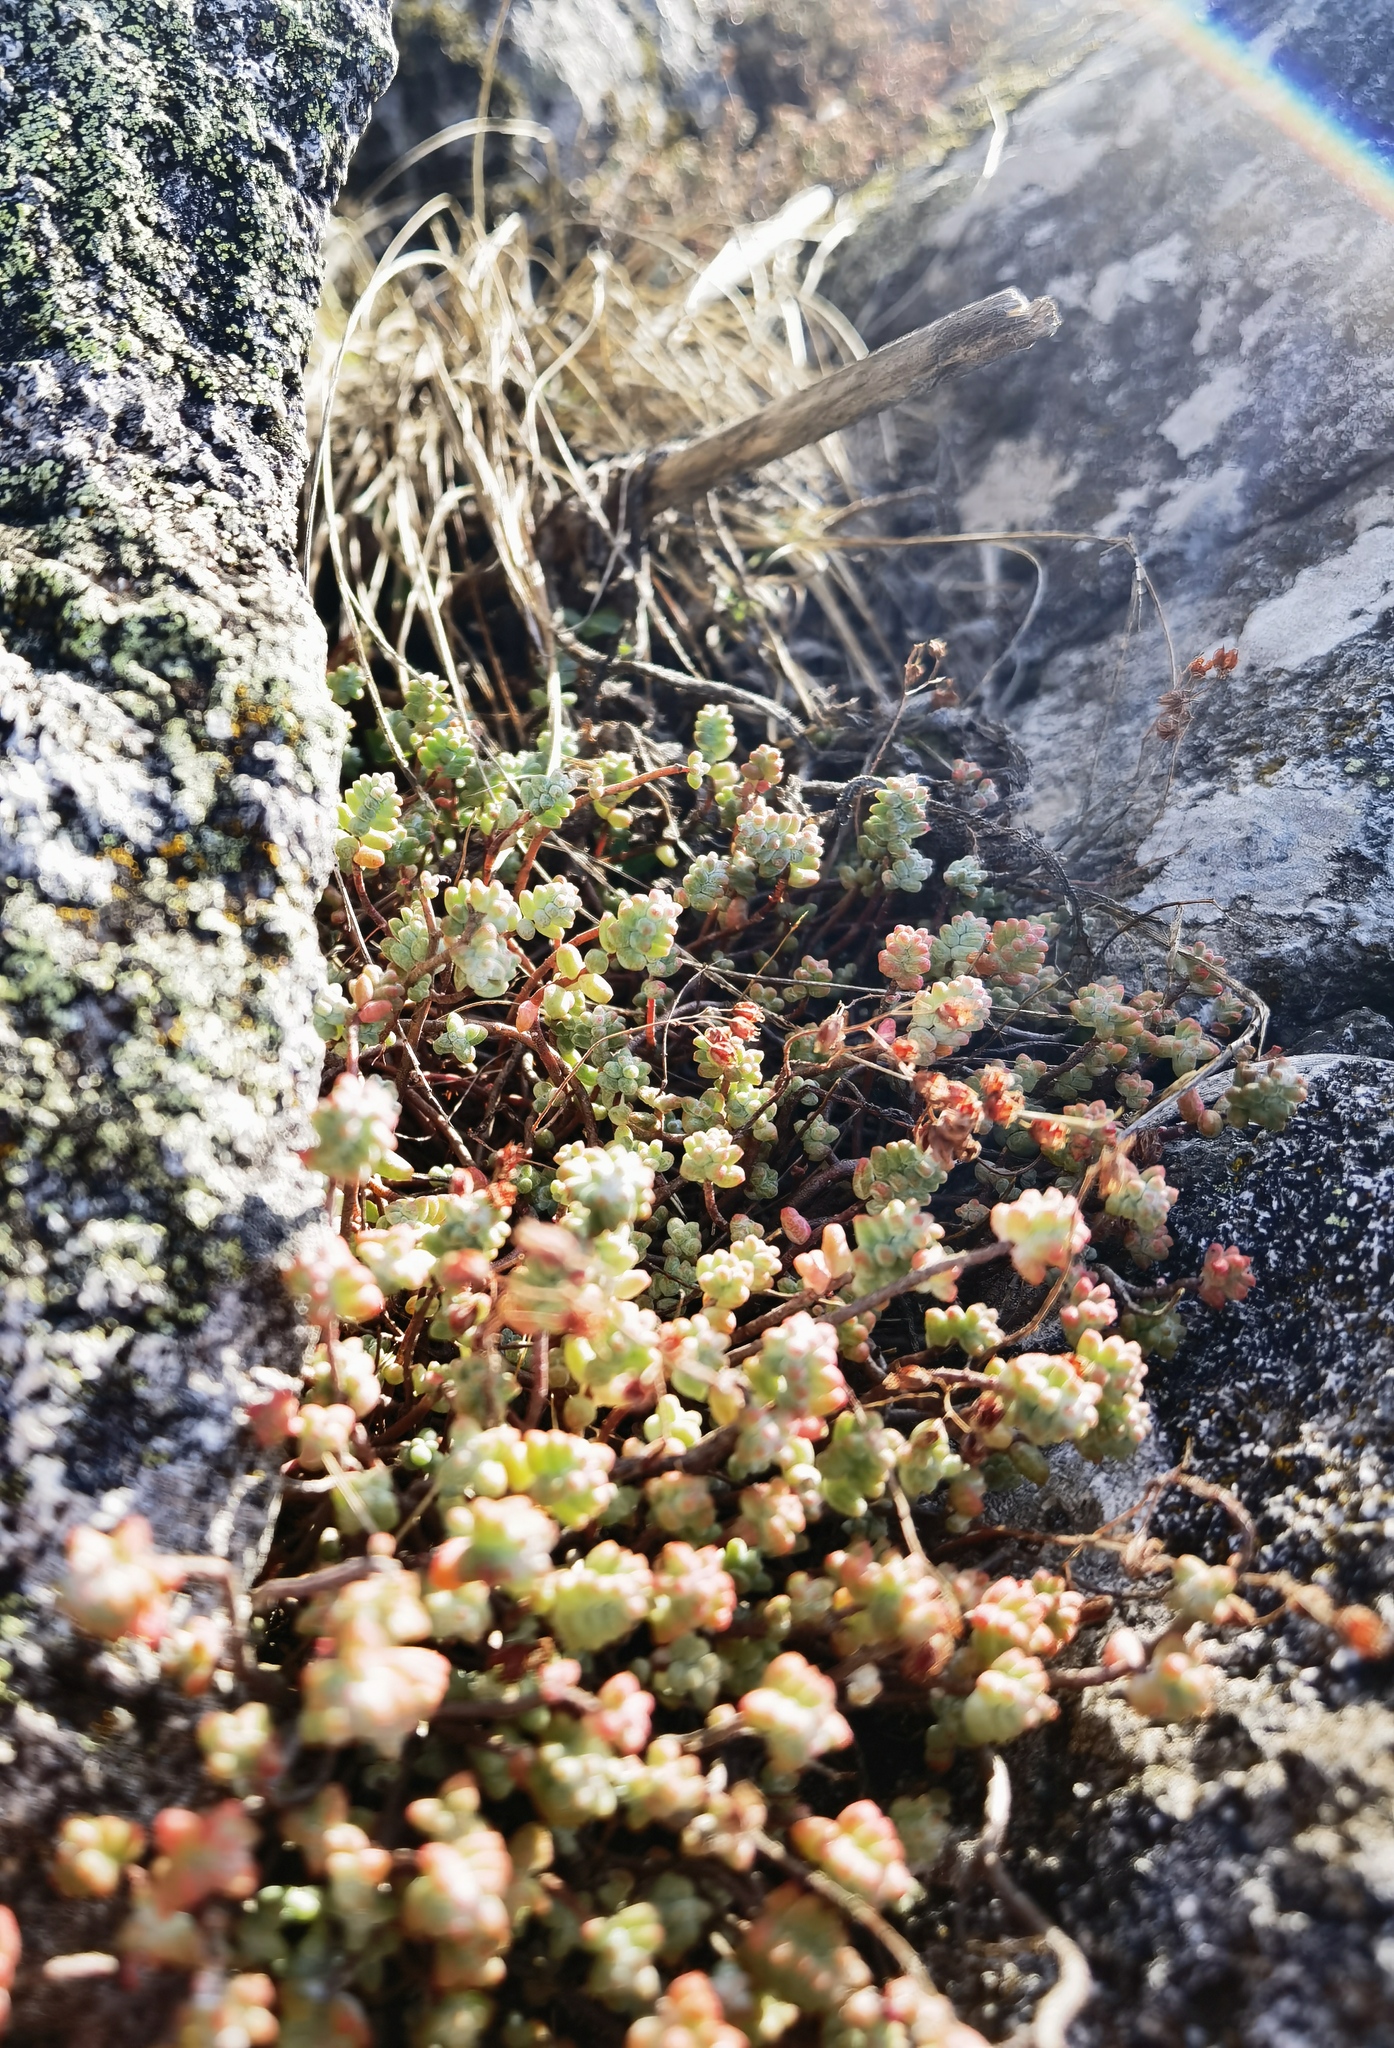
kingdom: Plantae
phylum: Tracheophyta
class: Magnoliopsida
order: Saxifragales
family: Crassulaceae
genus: Sedum
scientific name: Sedum brevifolium
